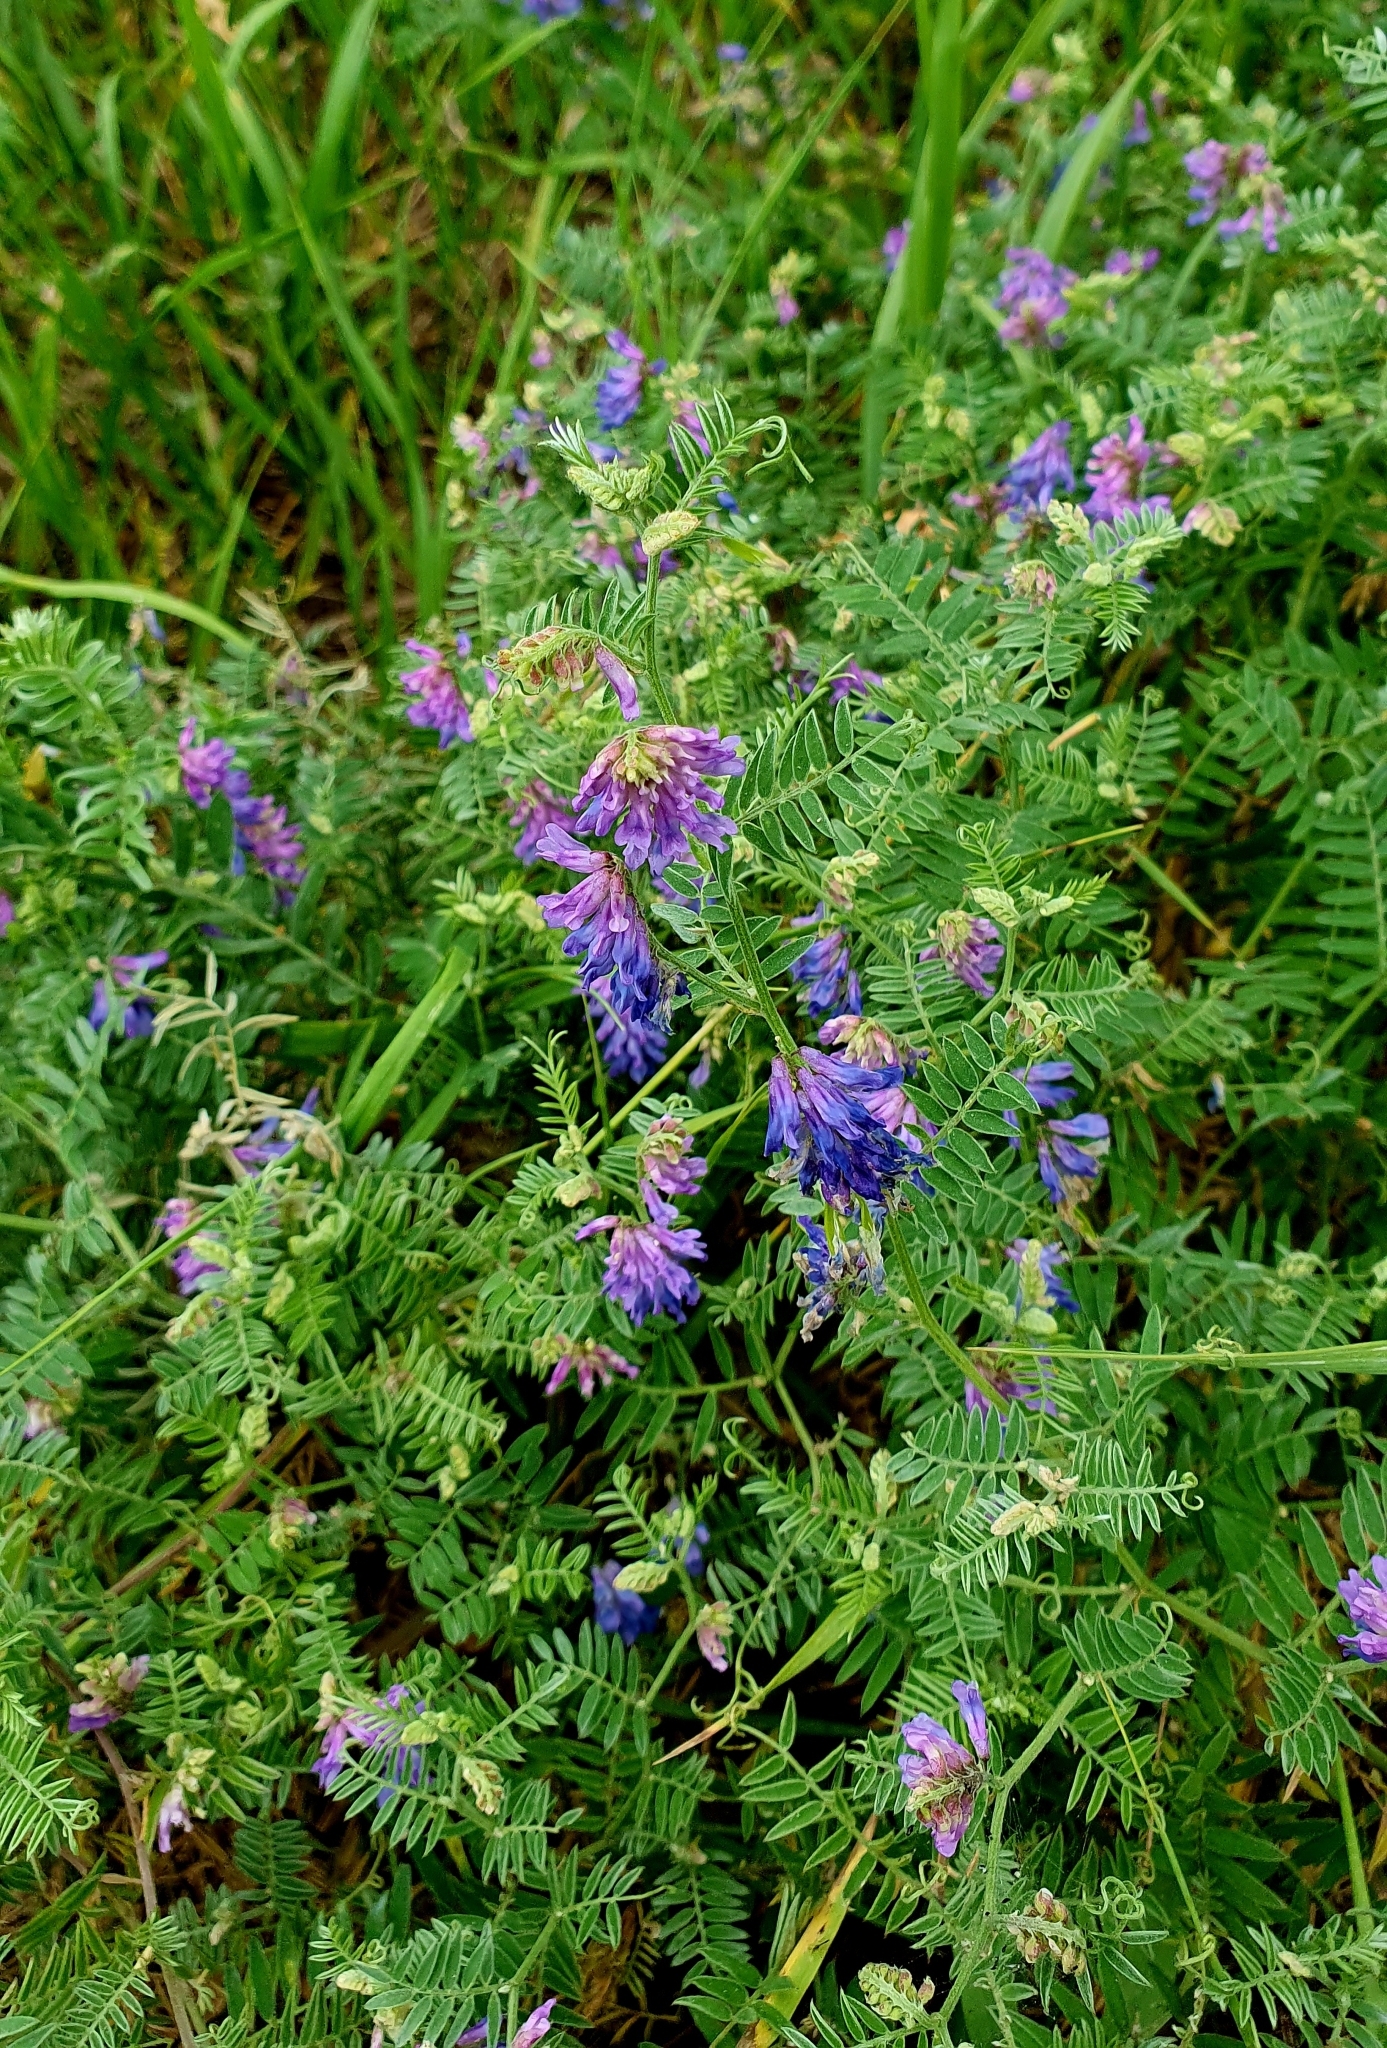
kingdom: Plantae
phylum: Tracheophyta
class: Magnoliopsida
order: Fabales
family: Fabaceae
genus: Vicia
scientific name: Vicia cracca
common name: Bird vetch
